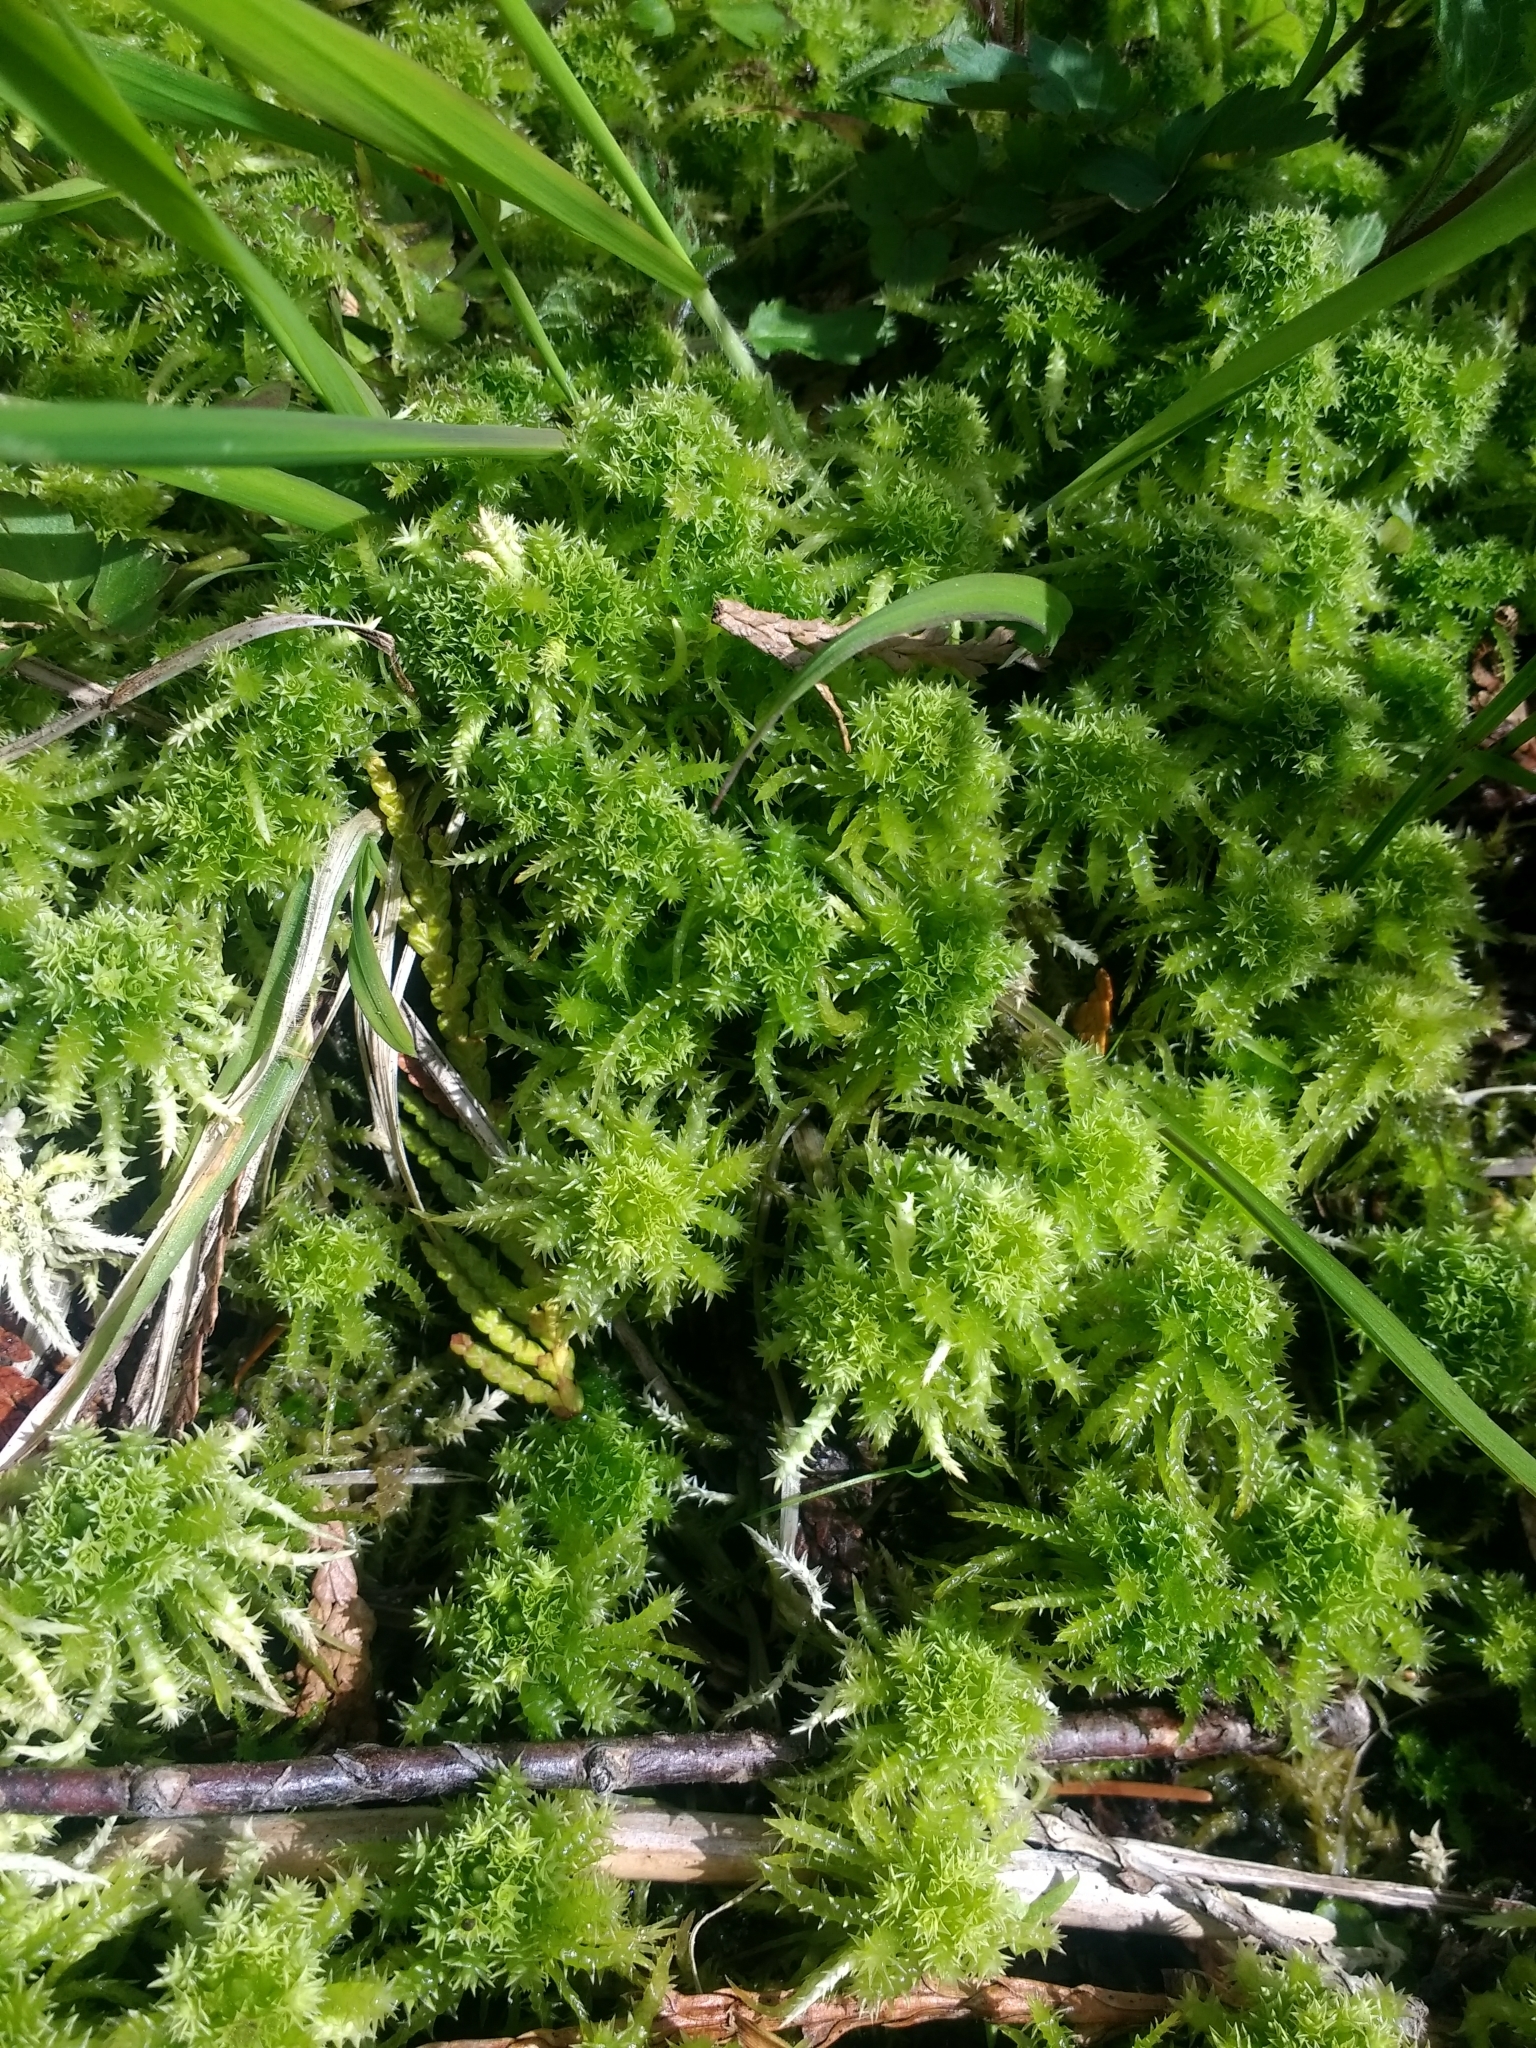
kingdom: Plantae
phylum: Bryophyta
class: Sphagnopsida
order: Sphagnales
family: Sphagnaceae
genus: Sphagnum
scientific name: Sphagnum squarrosum
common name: Shaggy peat moss
